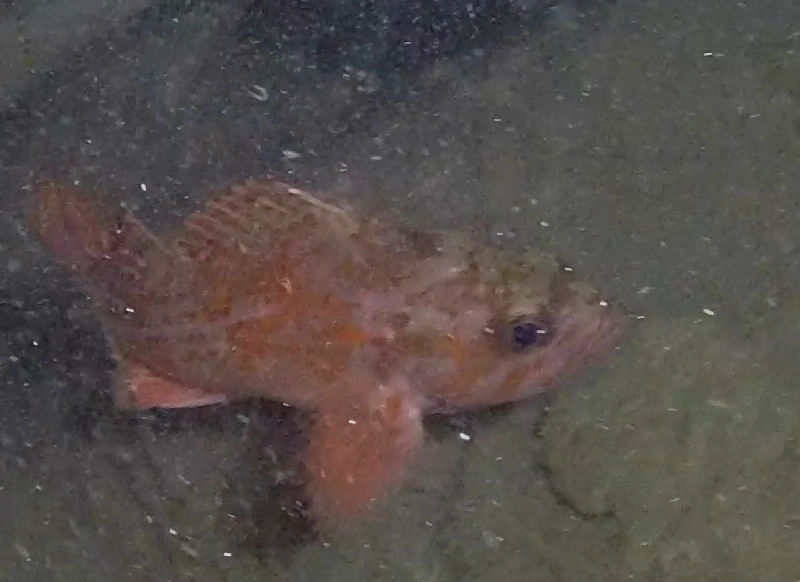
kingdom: Animalia
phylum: Chordata
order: Scorpaeniformes
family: Sebastidae
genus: Sebastes
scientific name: Sebastes miniatus
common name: Vermilion rockfish
